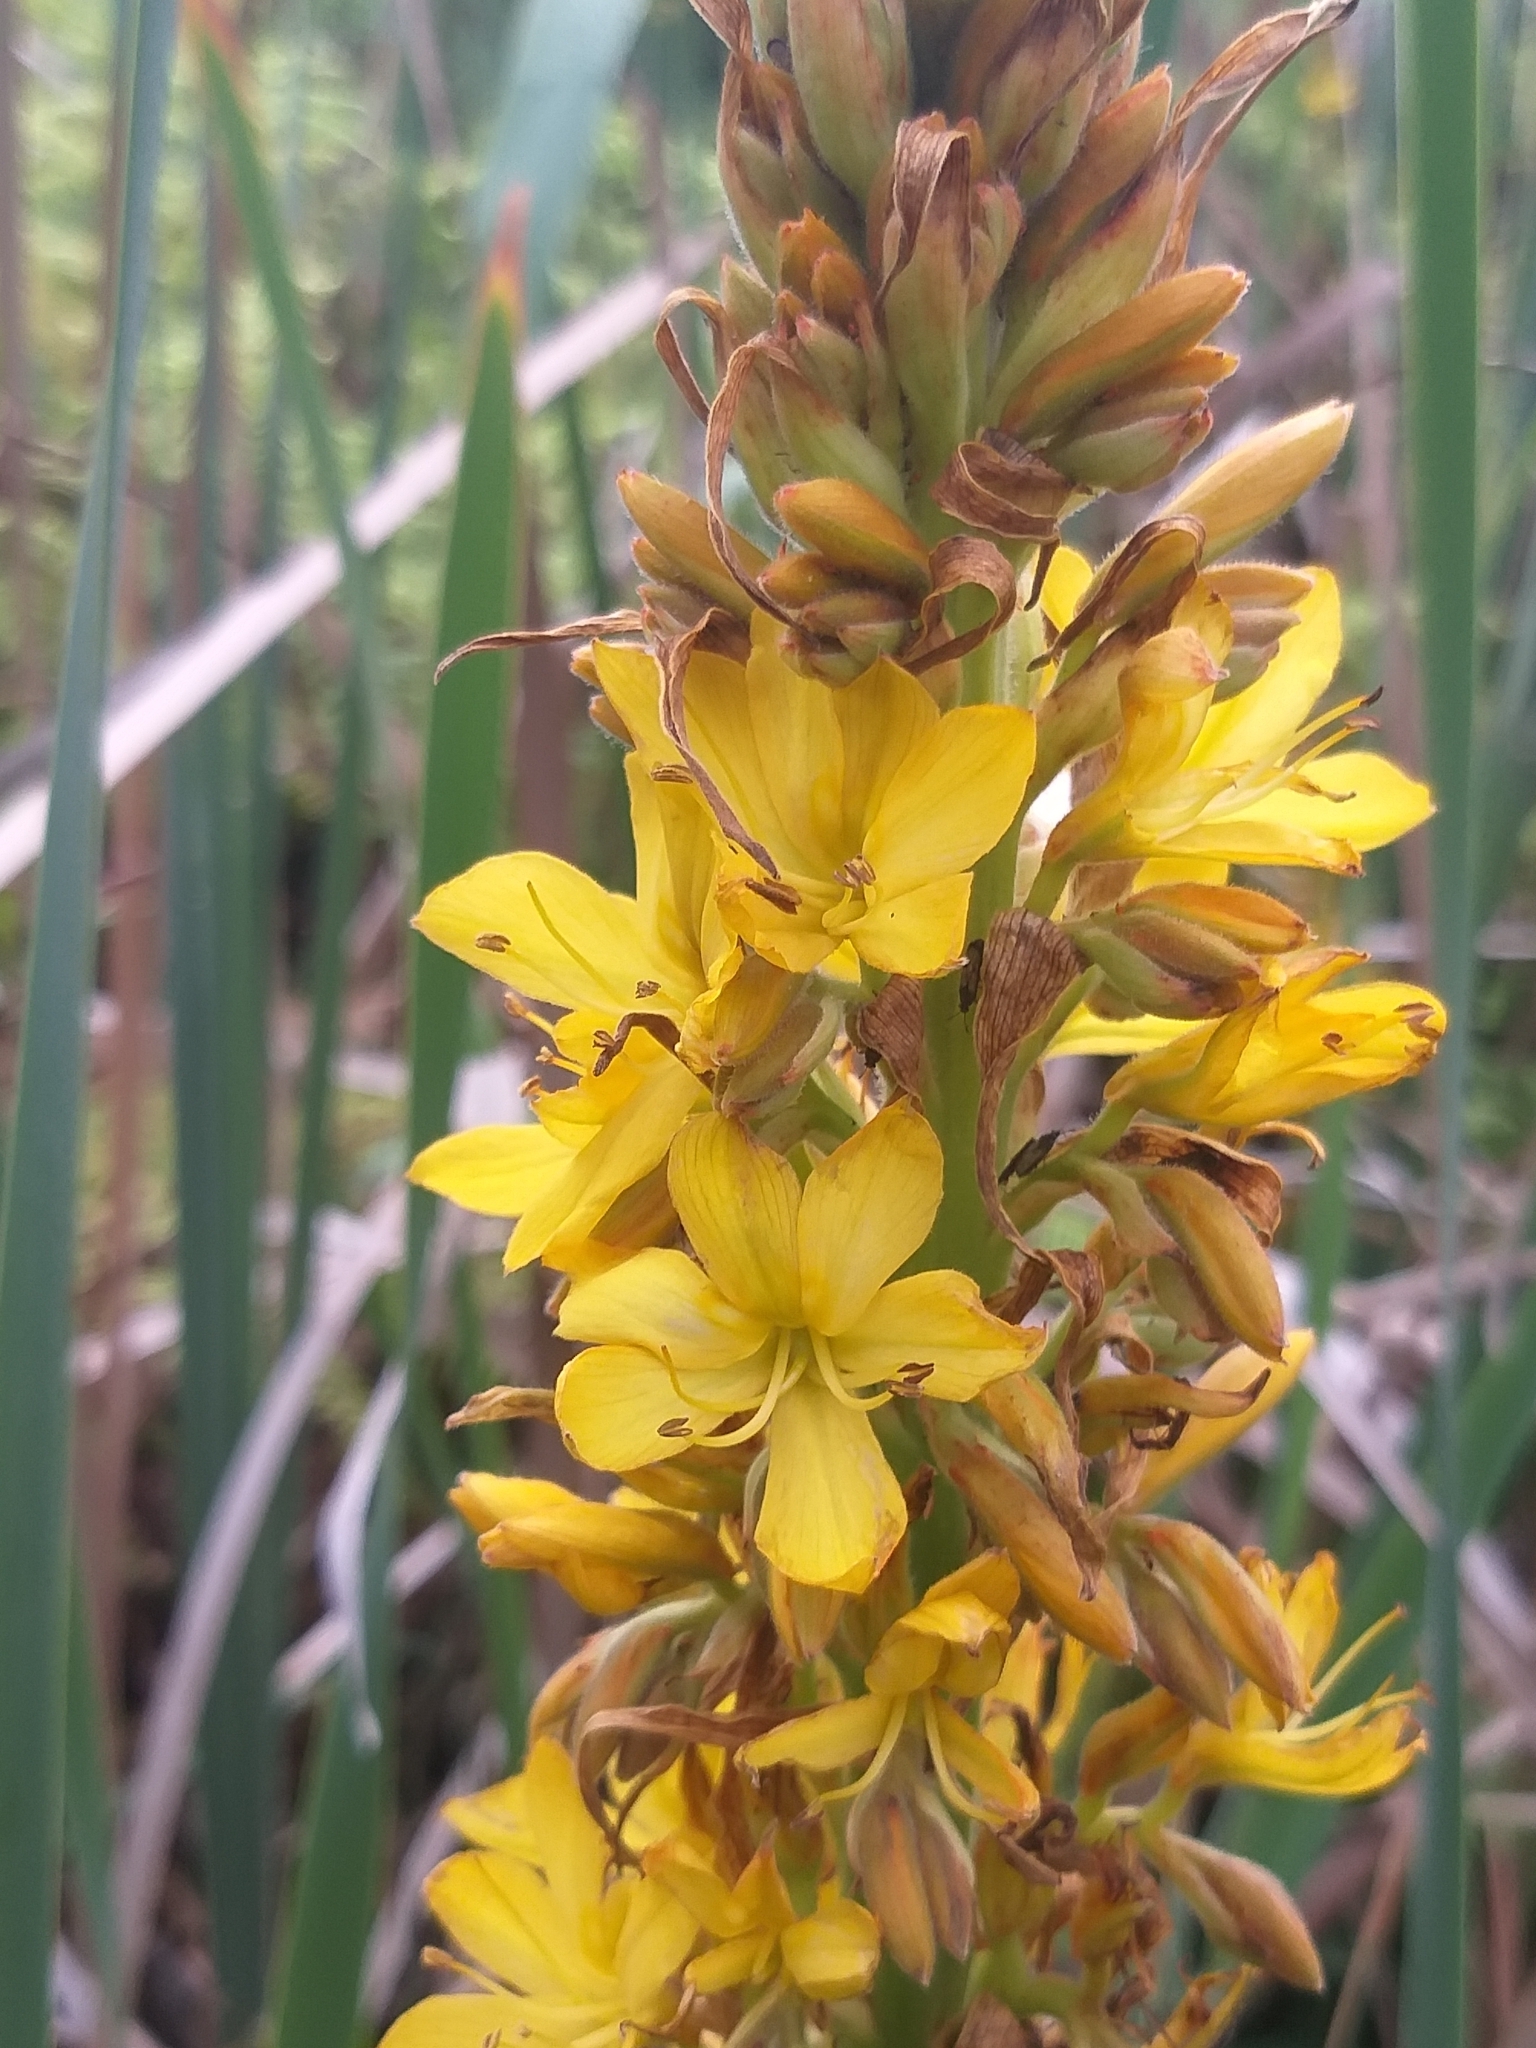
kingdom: Plantae
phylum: Tracheophyta
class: Liliopsida
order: Commelinales
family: Haemodoraceae
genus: Wachendorfia
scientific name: Wachendorfia thyrsiflora
